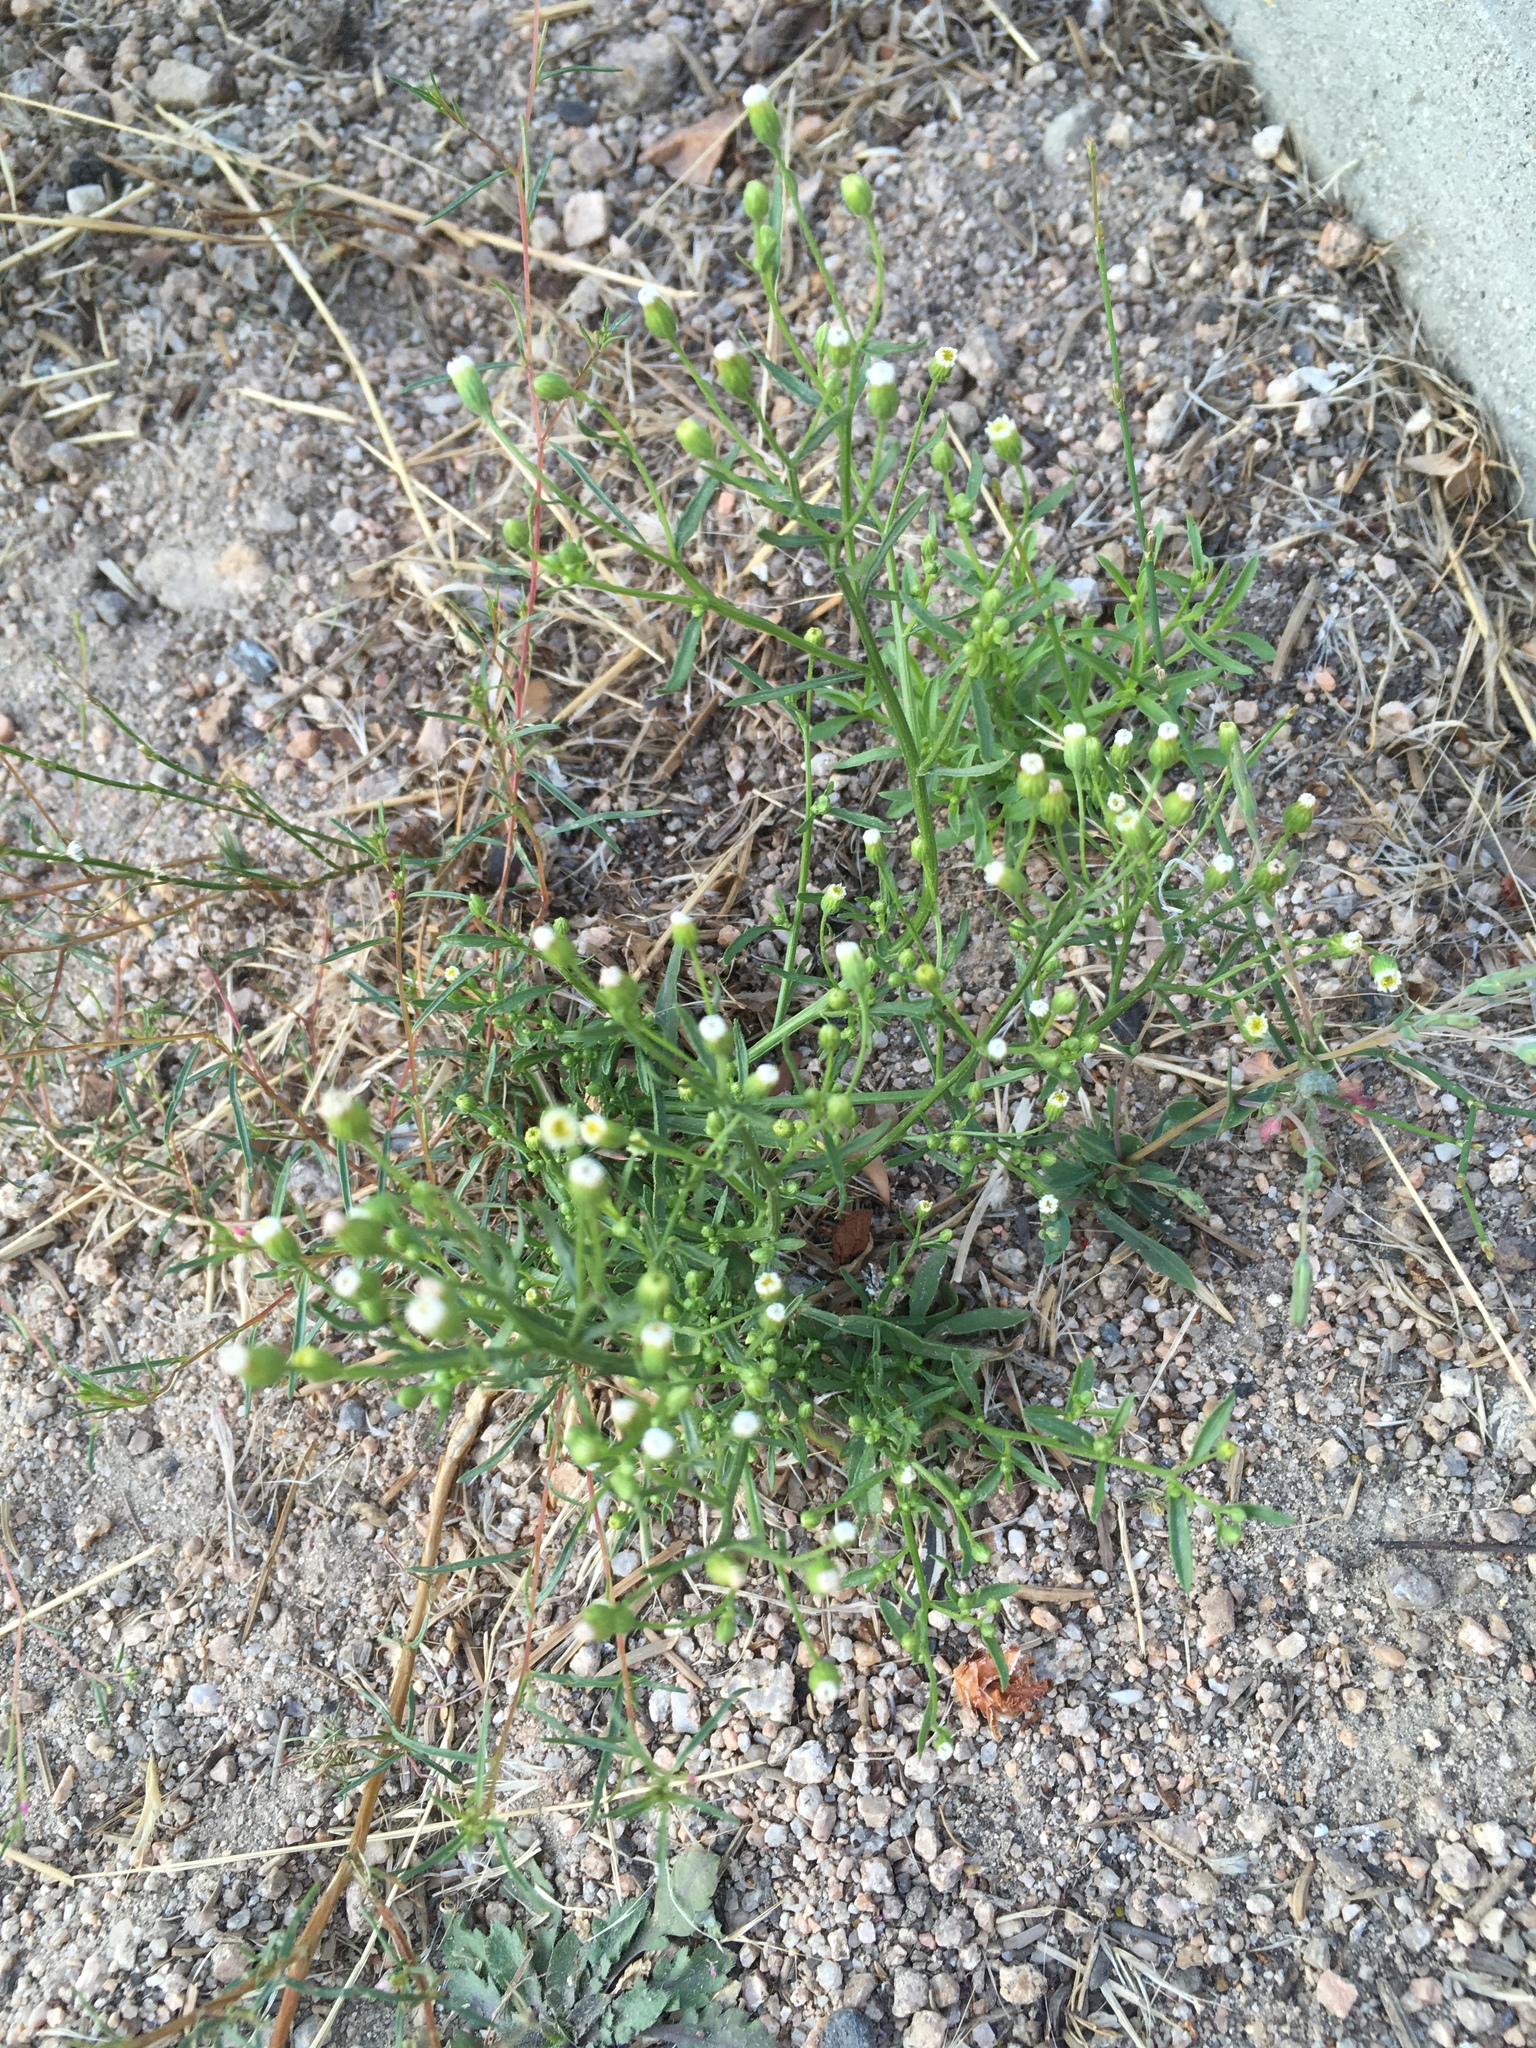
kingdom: Plantae
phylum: Tracheophyta
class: Magnoliopsida
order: Asterales
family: Asteraceae
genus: Erigeron
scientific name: Erigeron canadensis
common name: Canadian fleabane
